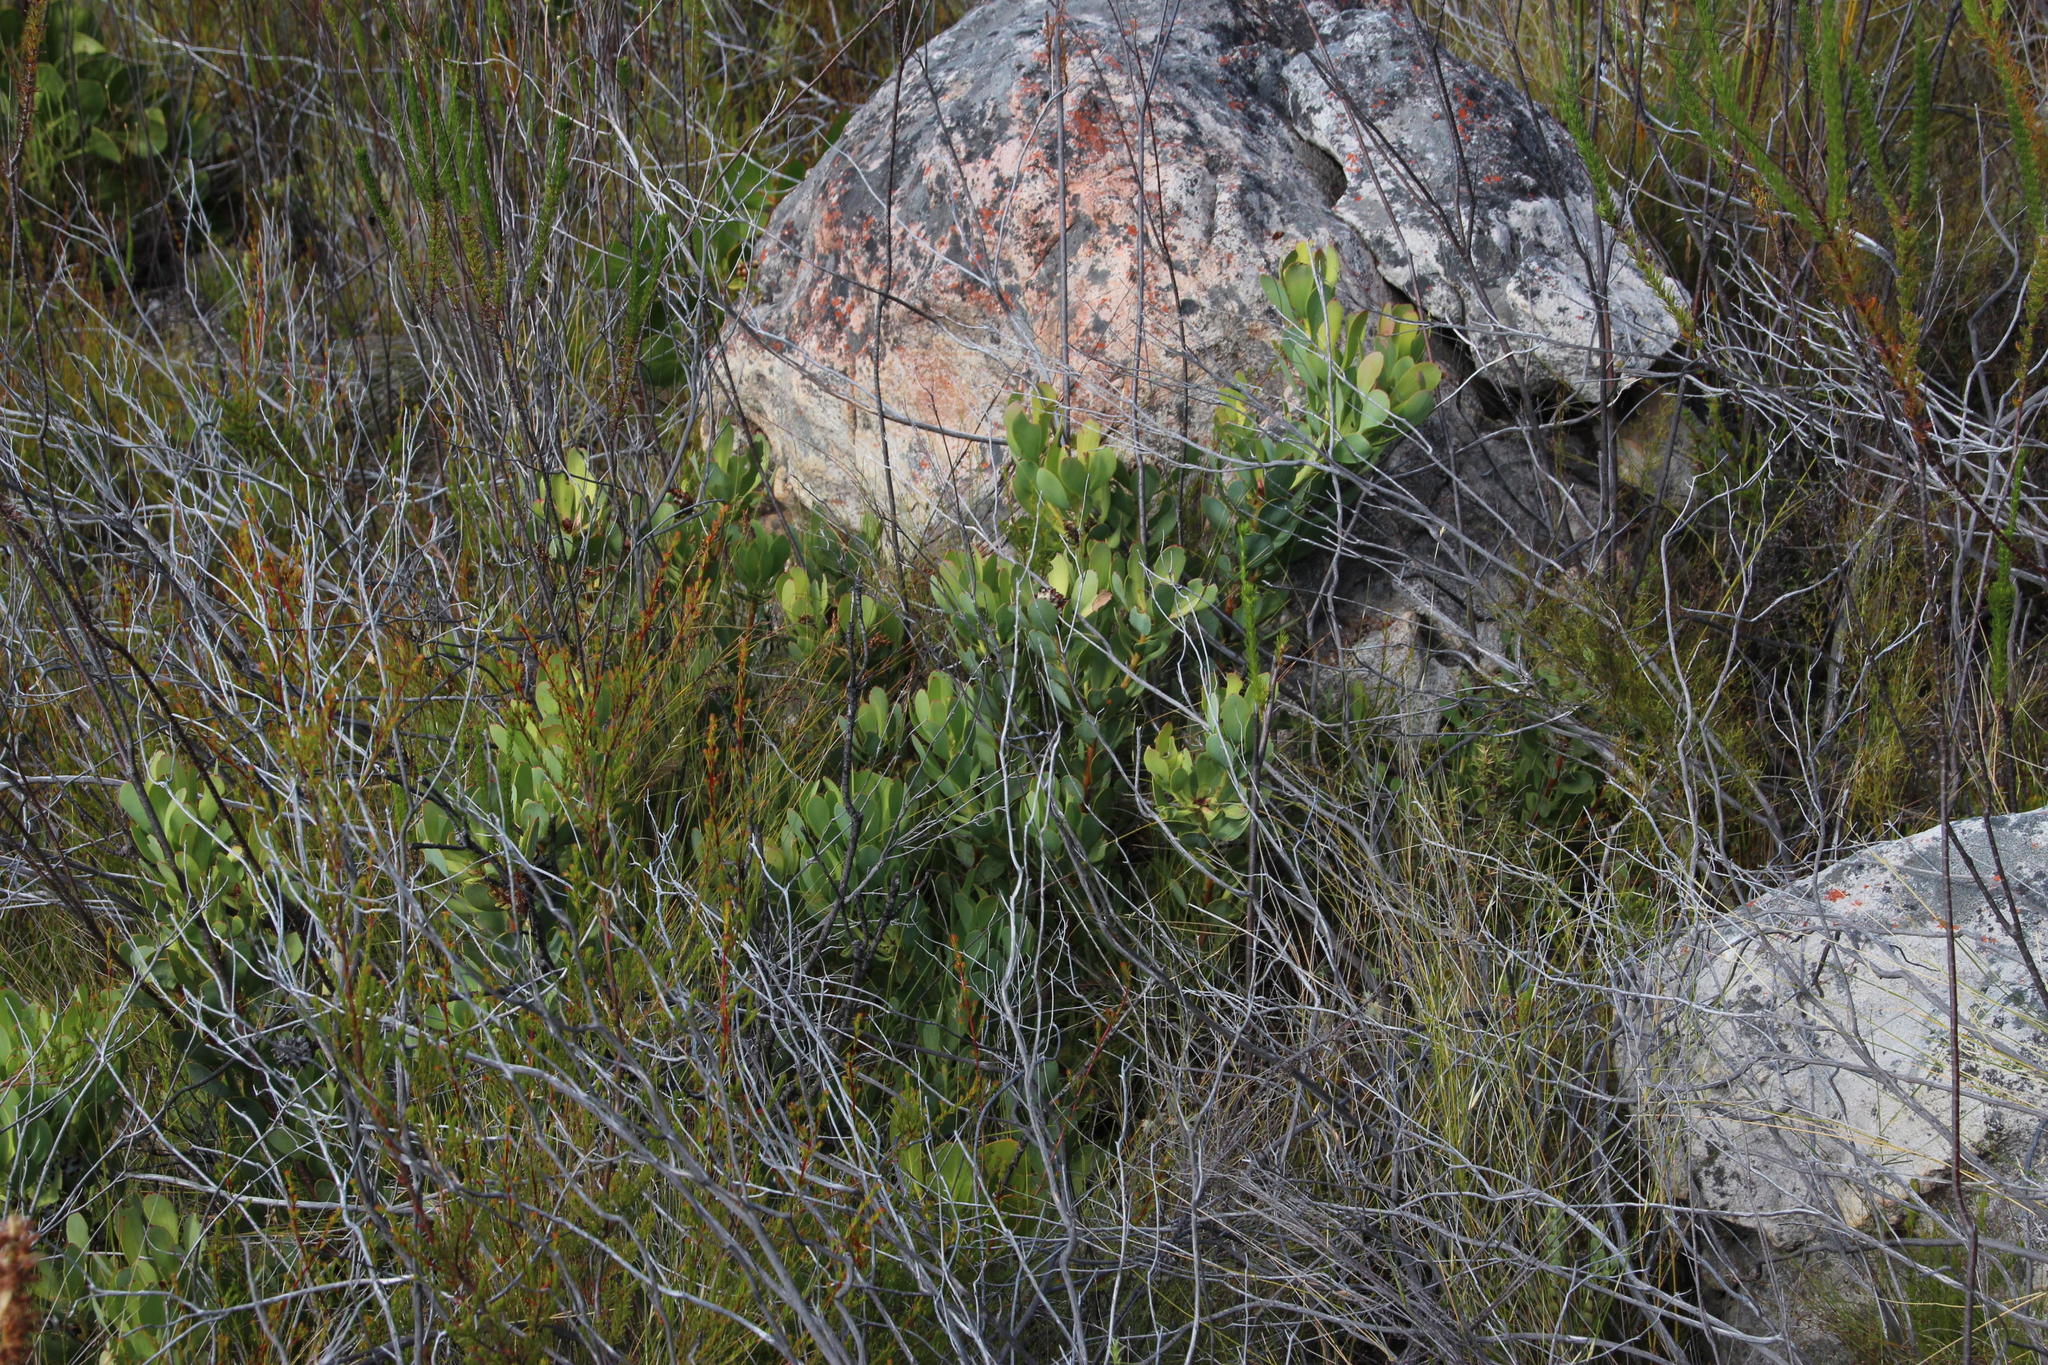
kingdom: Plantae
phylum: Tracheophyta
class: Magnoliopsida
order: Proteales
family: Proteaceae
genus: Leucadendron
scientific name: Leucadendron arcuatum
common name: Red-edge conebush
